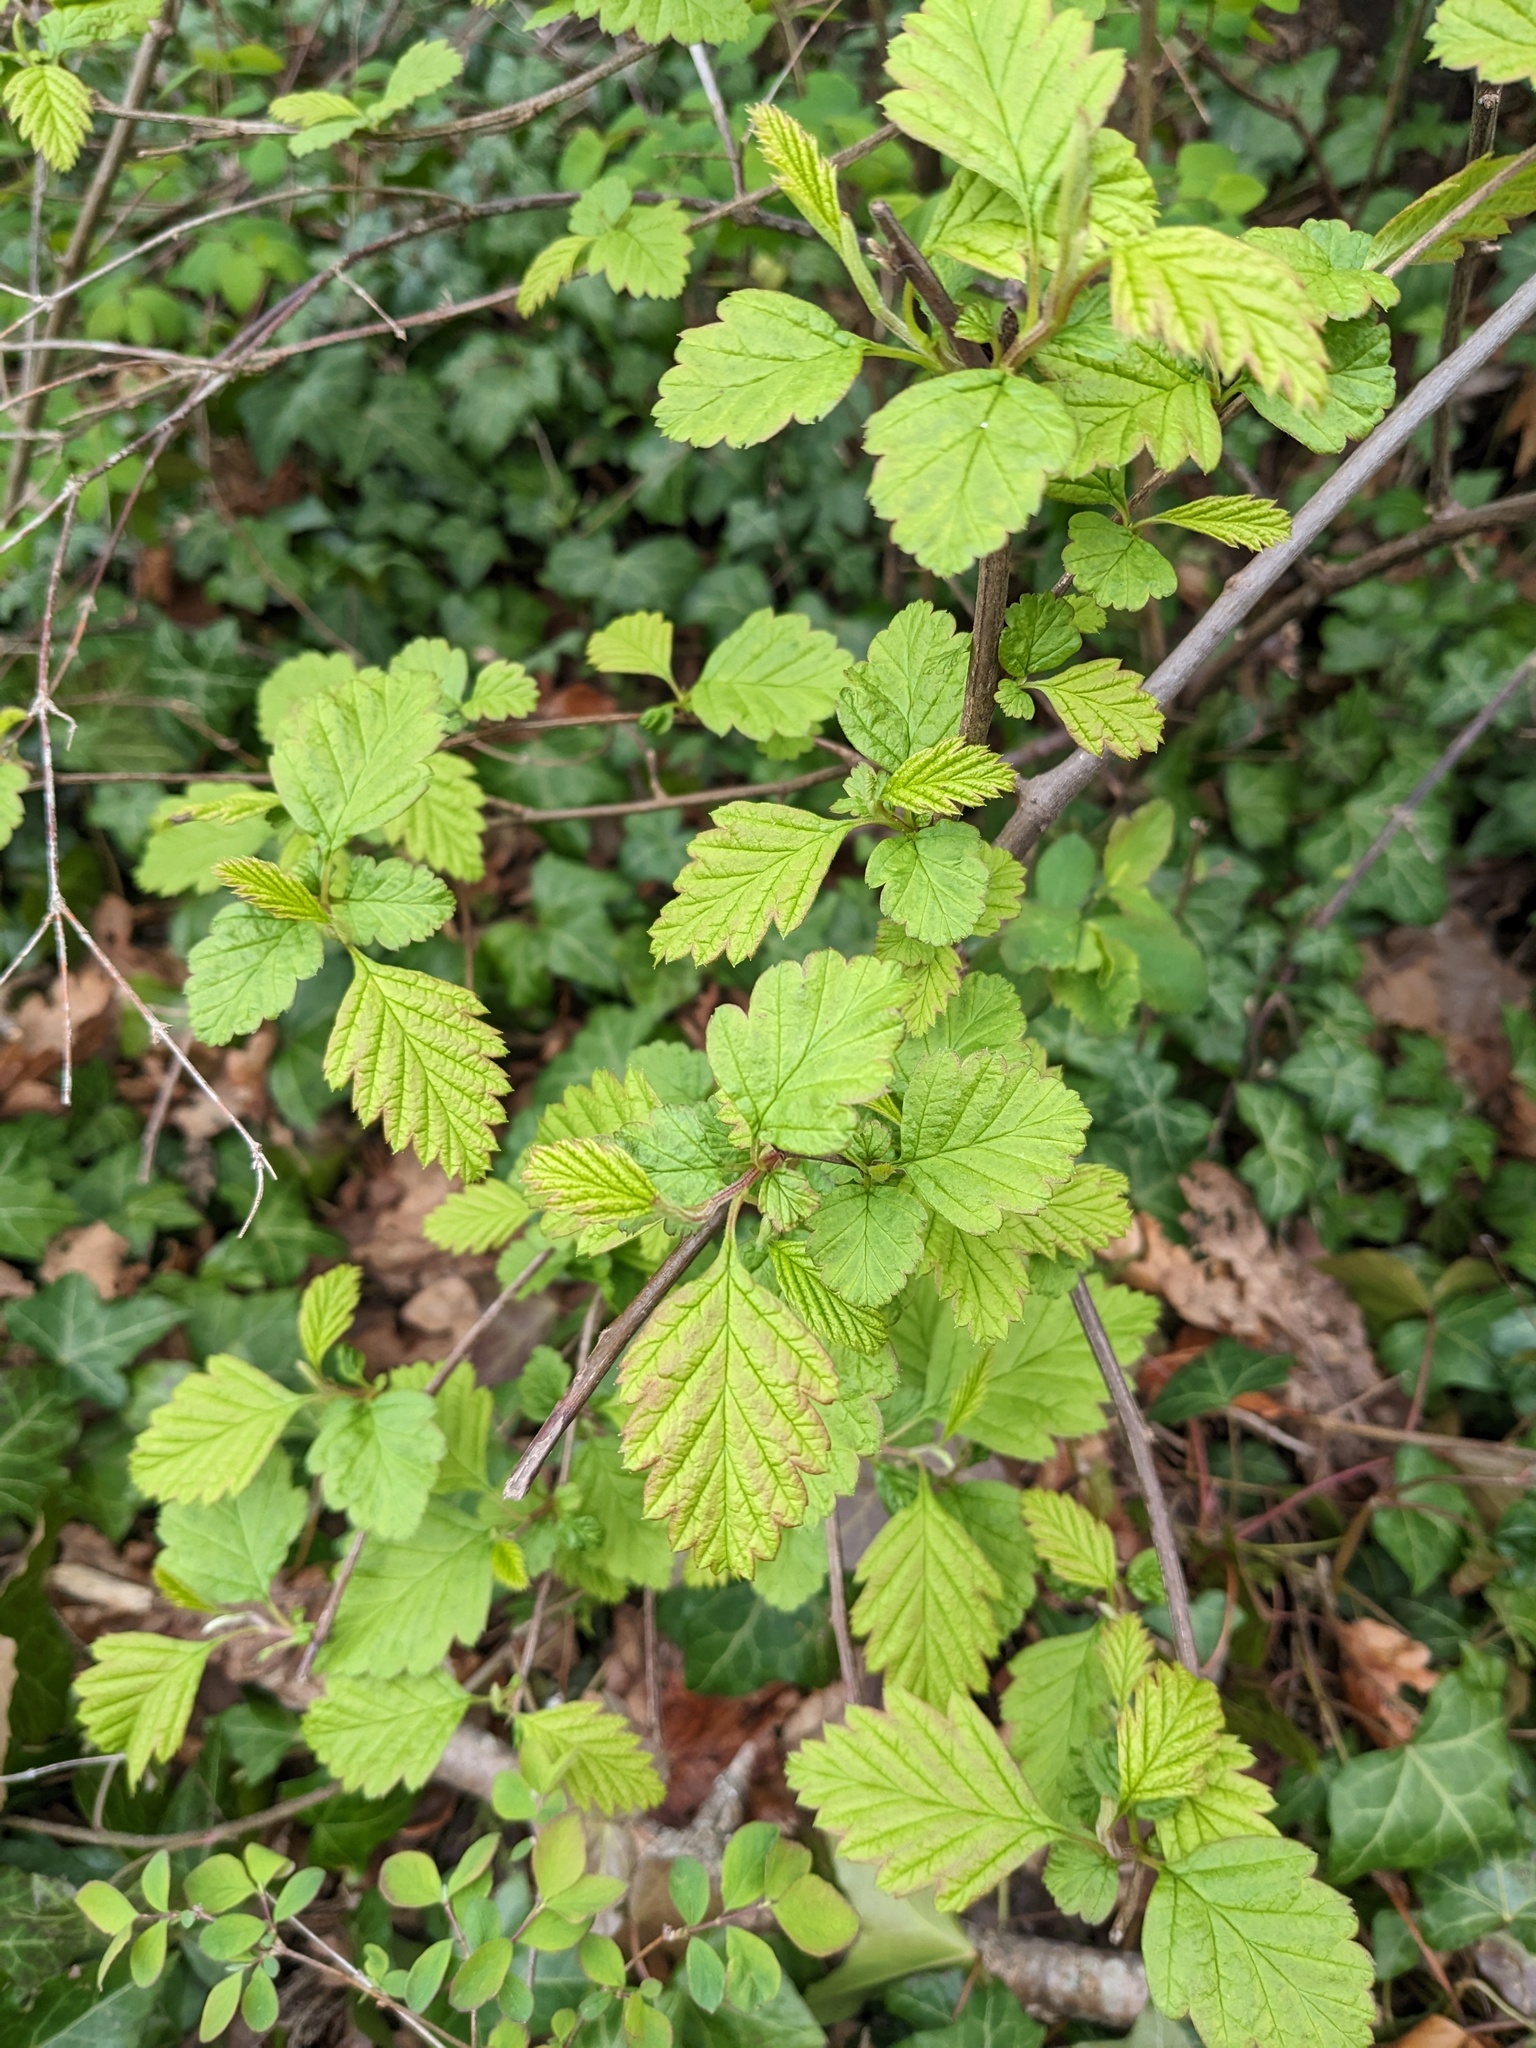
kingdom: Plantae
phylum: Tracheophyta
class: Magnoliopsida
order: Rosales
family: Rosaceae
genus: Holodiscus
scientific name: Holodiscus discolor
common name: Oceanspray
